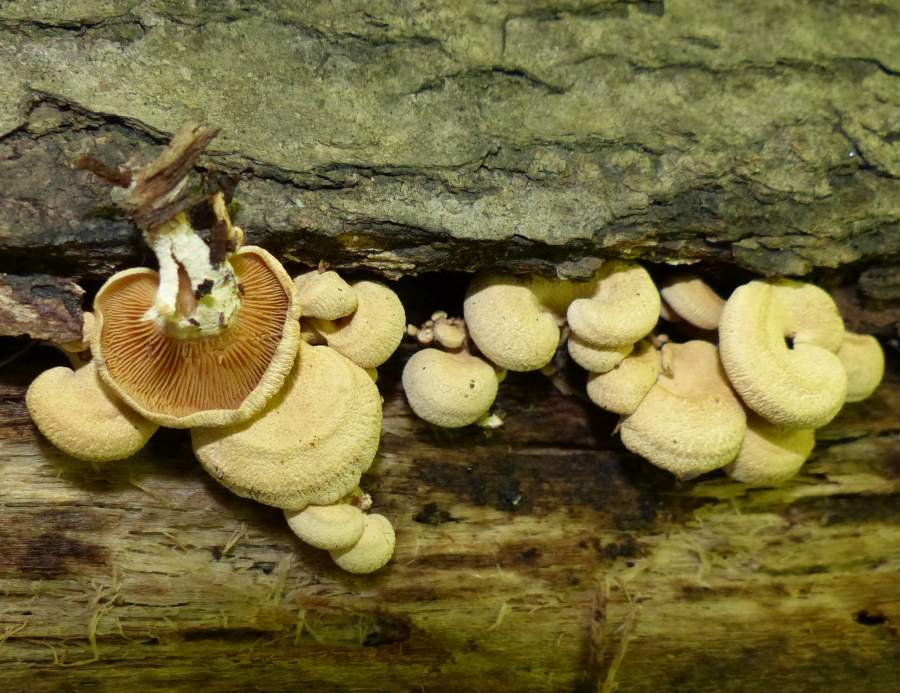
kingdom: Fungi
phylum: Basidiomycota
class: Agaricomycetes
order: Agaricales
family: Mycenaceae
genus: Panellus
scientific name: Panellus stipticus
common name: Bitter oysterling
